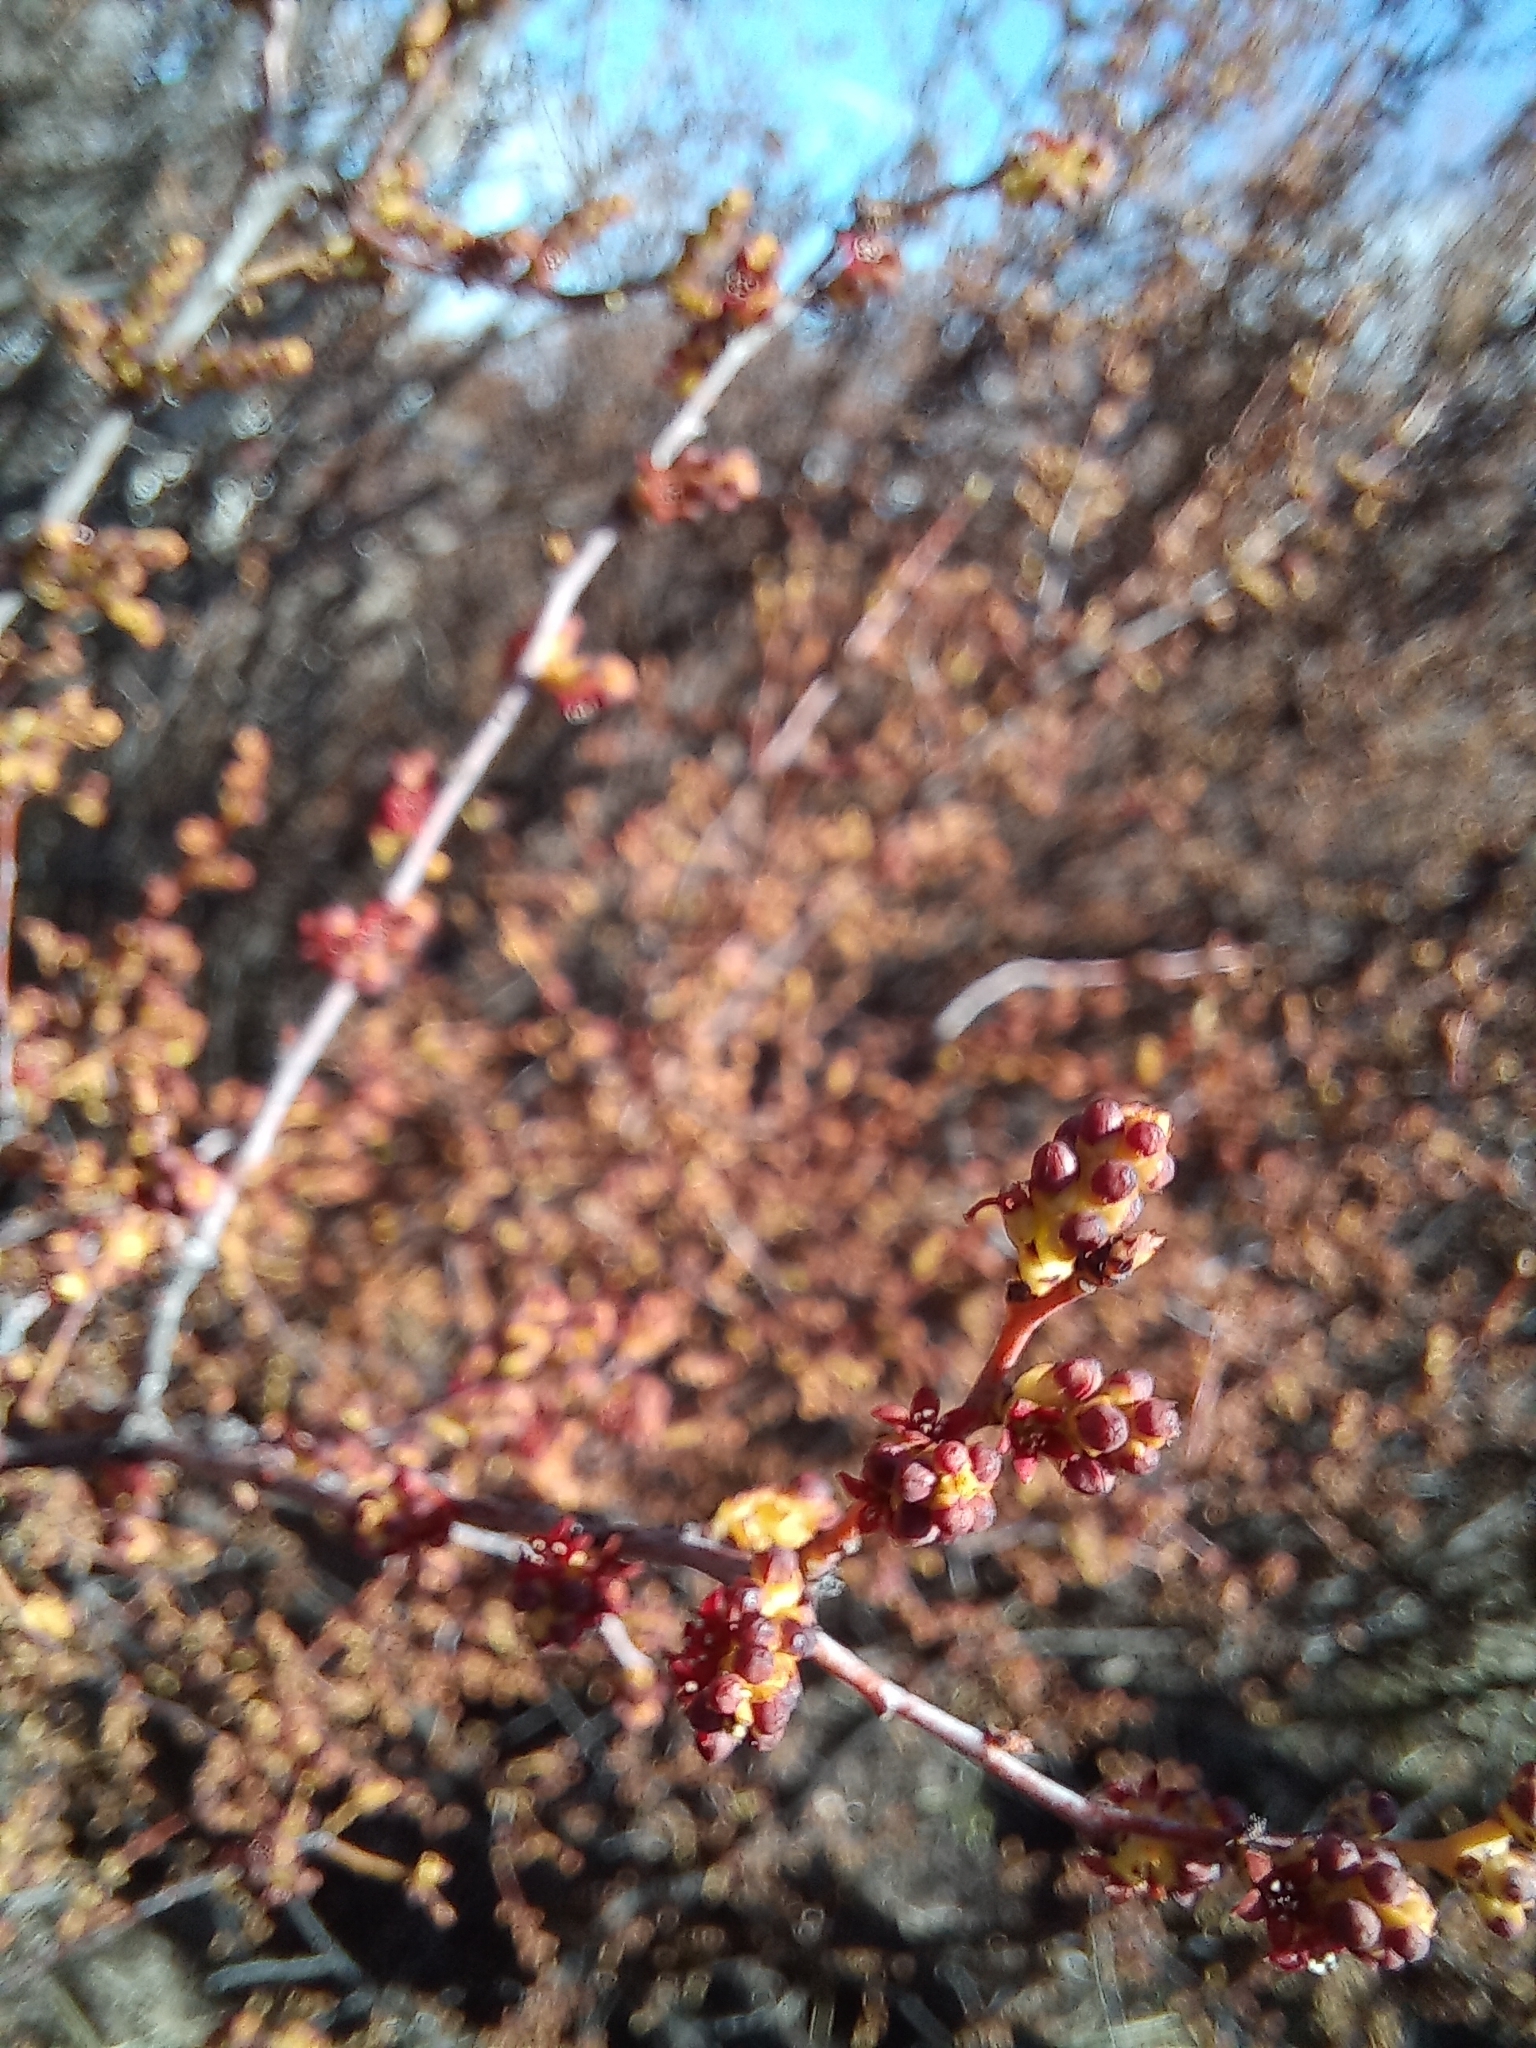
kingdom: Plantae
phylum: Tracheophyta
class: Magnoliopsida
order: Santalales
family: Santalaceae
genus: Myoschilos
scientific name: Myoschilos oblongum
